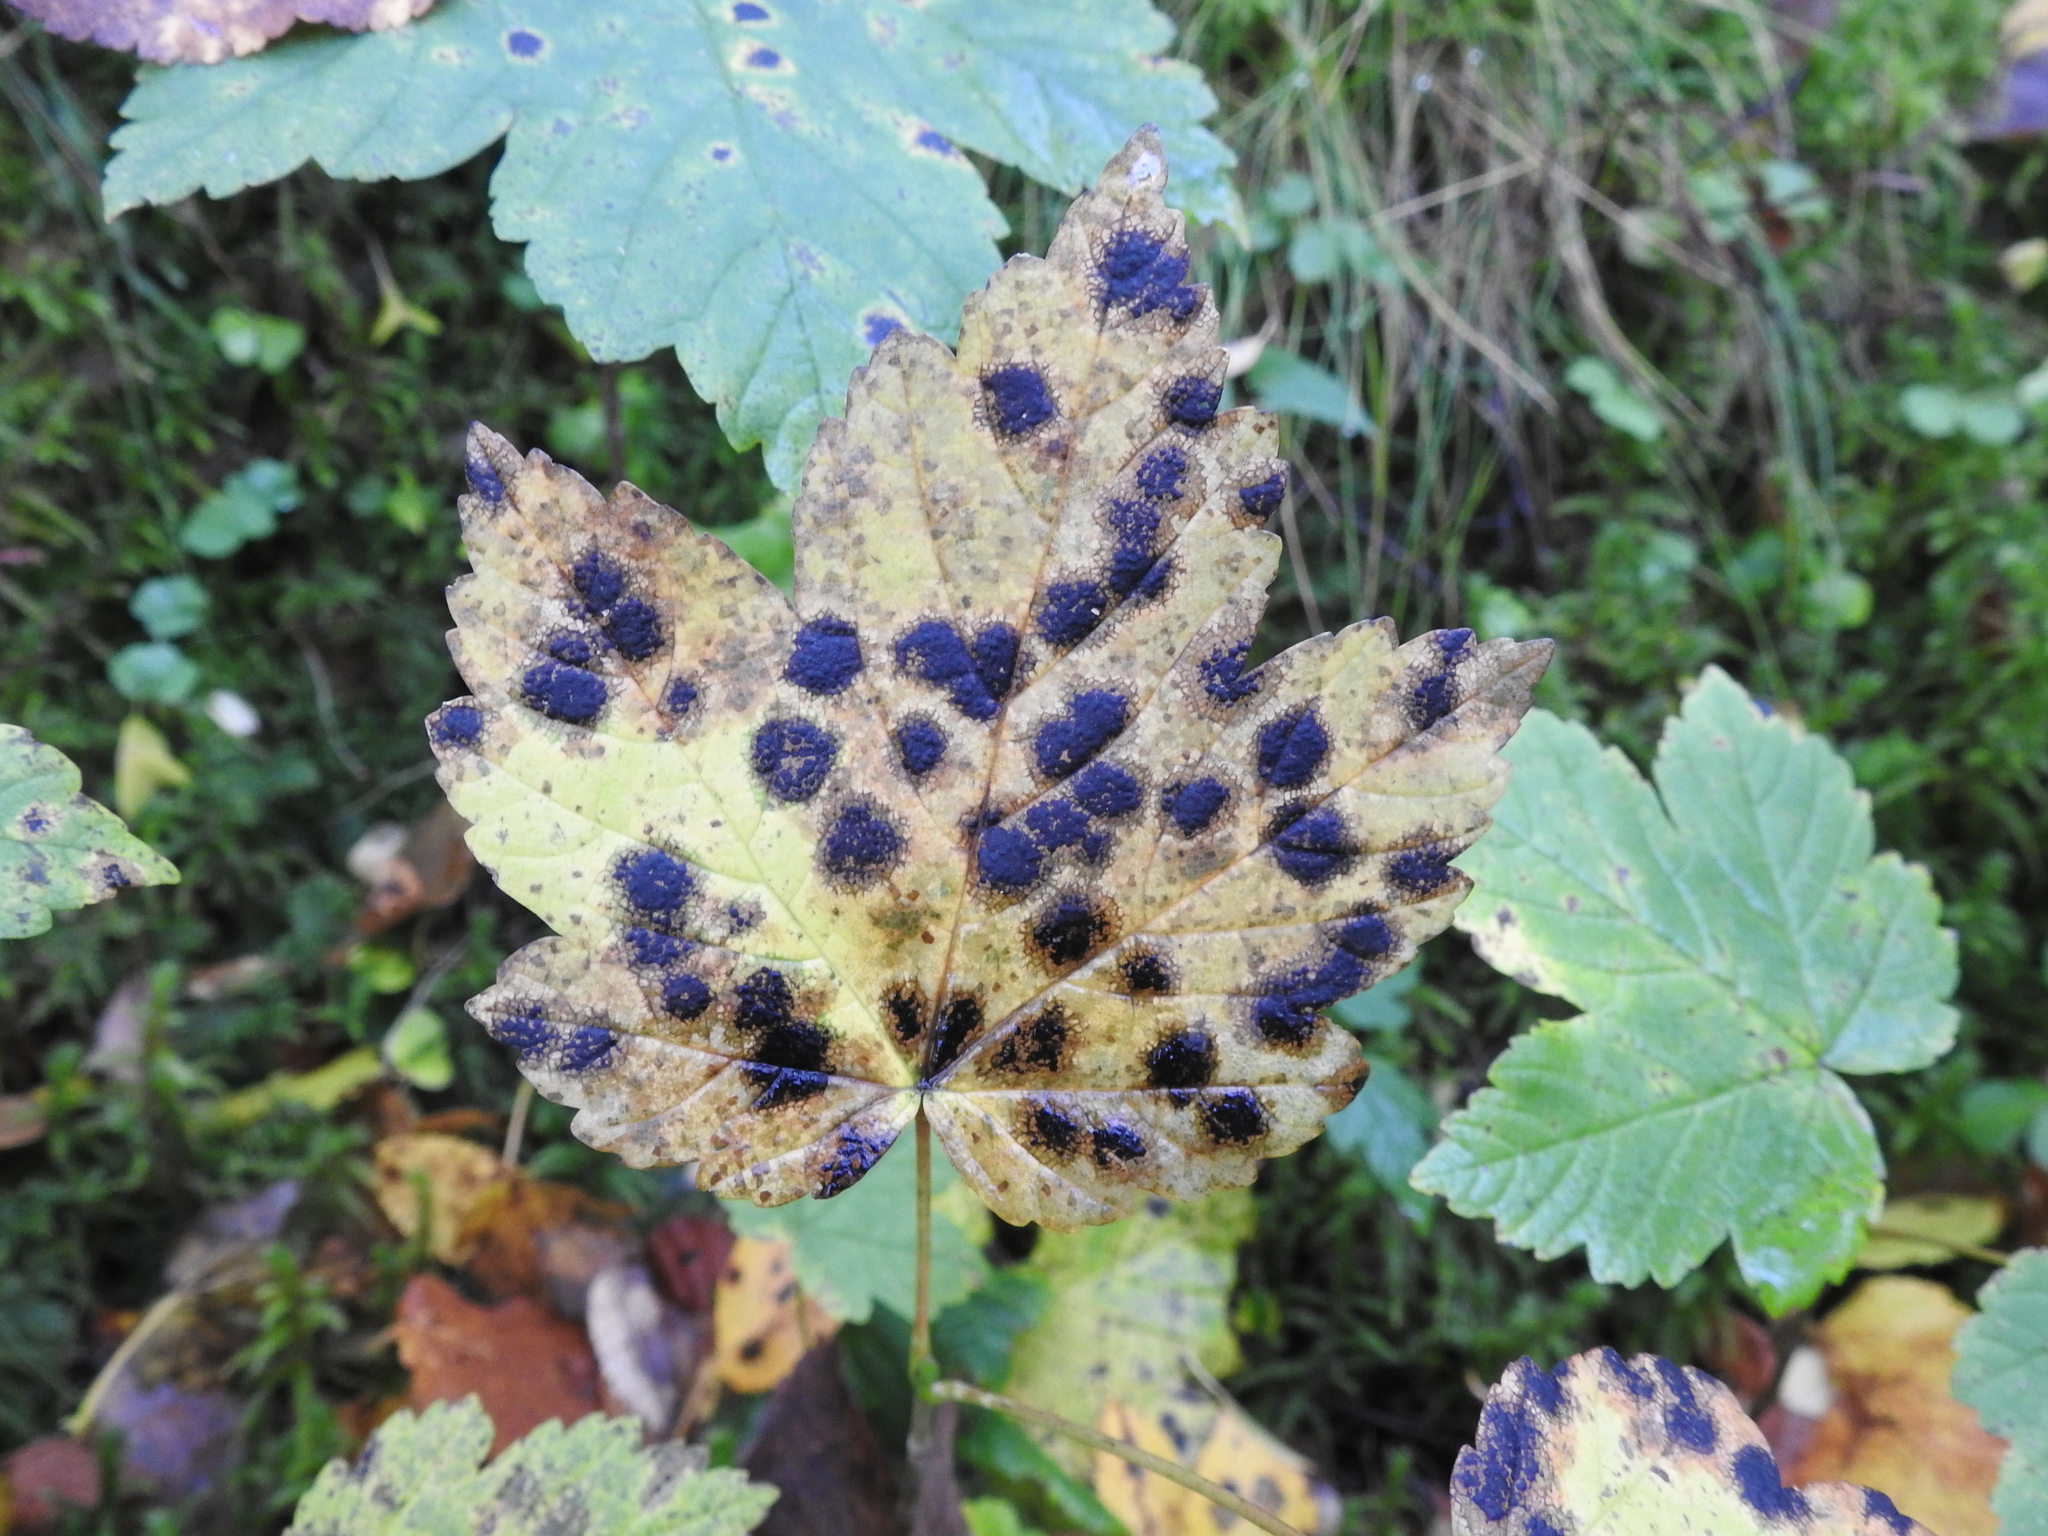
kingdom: Fungi
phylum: Ascomycota
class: Leotiomycetes
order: Rhytismatales
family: Rhytismataceae
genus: Rhytisma
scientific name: Rhytisma acerinum
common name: European tar spot
